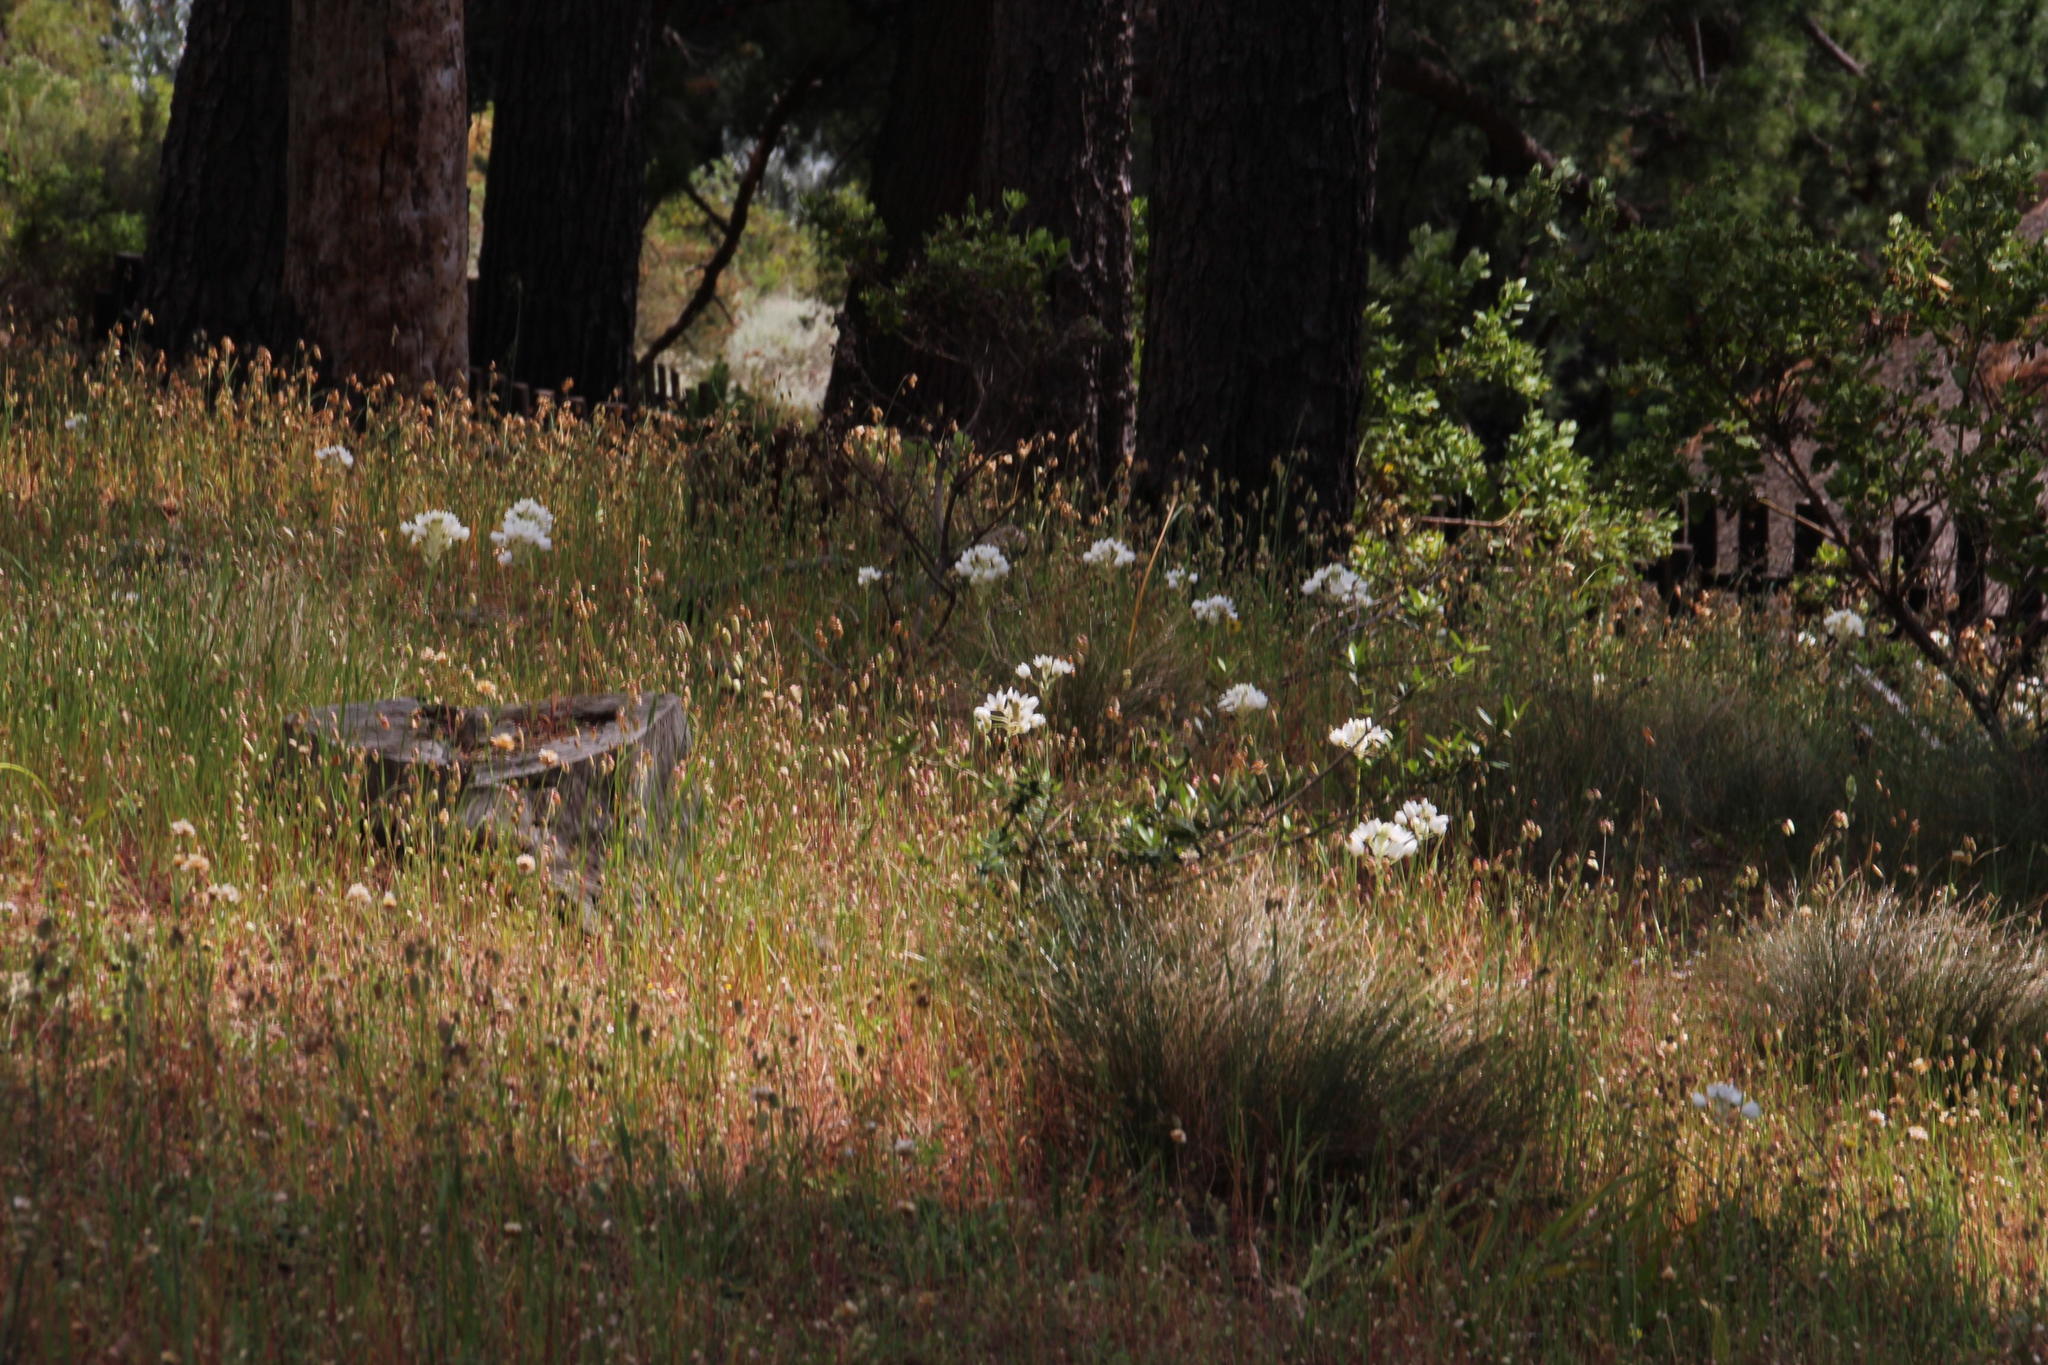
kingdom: Plantae
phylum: Tracheophyta
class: Liliopsida
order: Asparagales
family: Asparagaceae
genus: Ornithogalum
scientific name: Ornithogalum thyrsoides
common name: Chincherinchee
